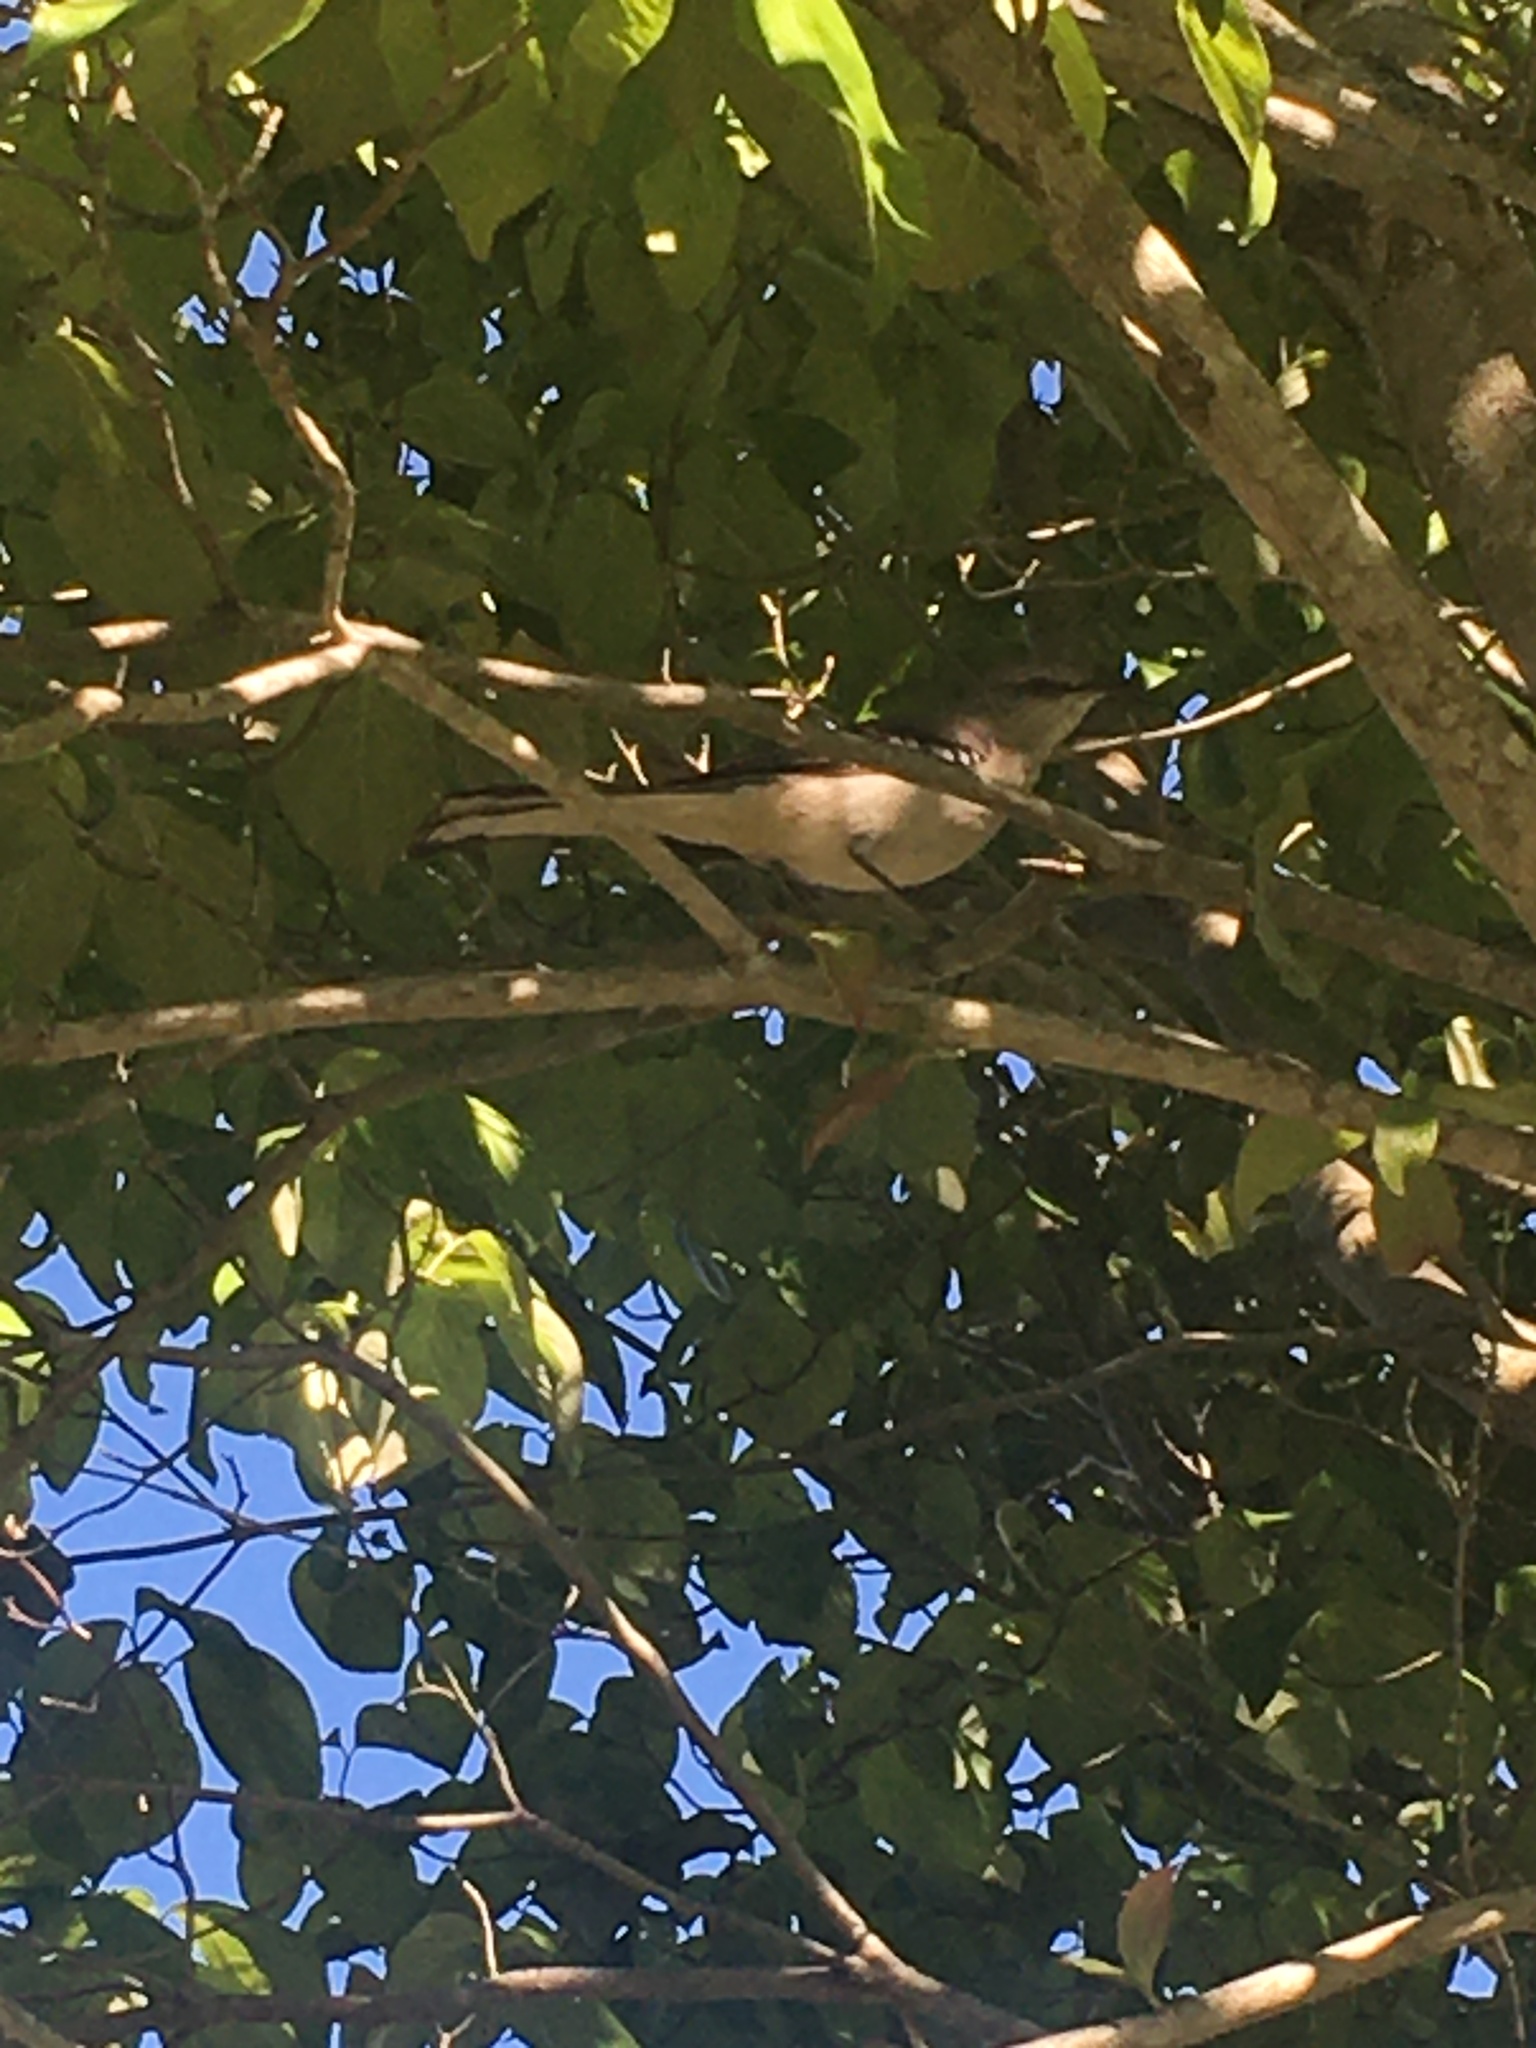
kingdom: Animalia
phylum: Chordata
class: Aves
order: Passeriformes
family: Mimidae
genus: Mimus
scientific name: Mimus polyglottos
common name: Northern mockingbird
